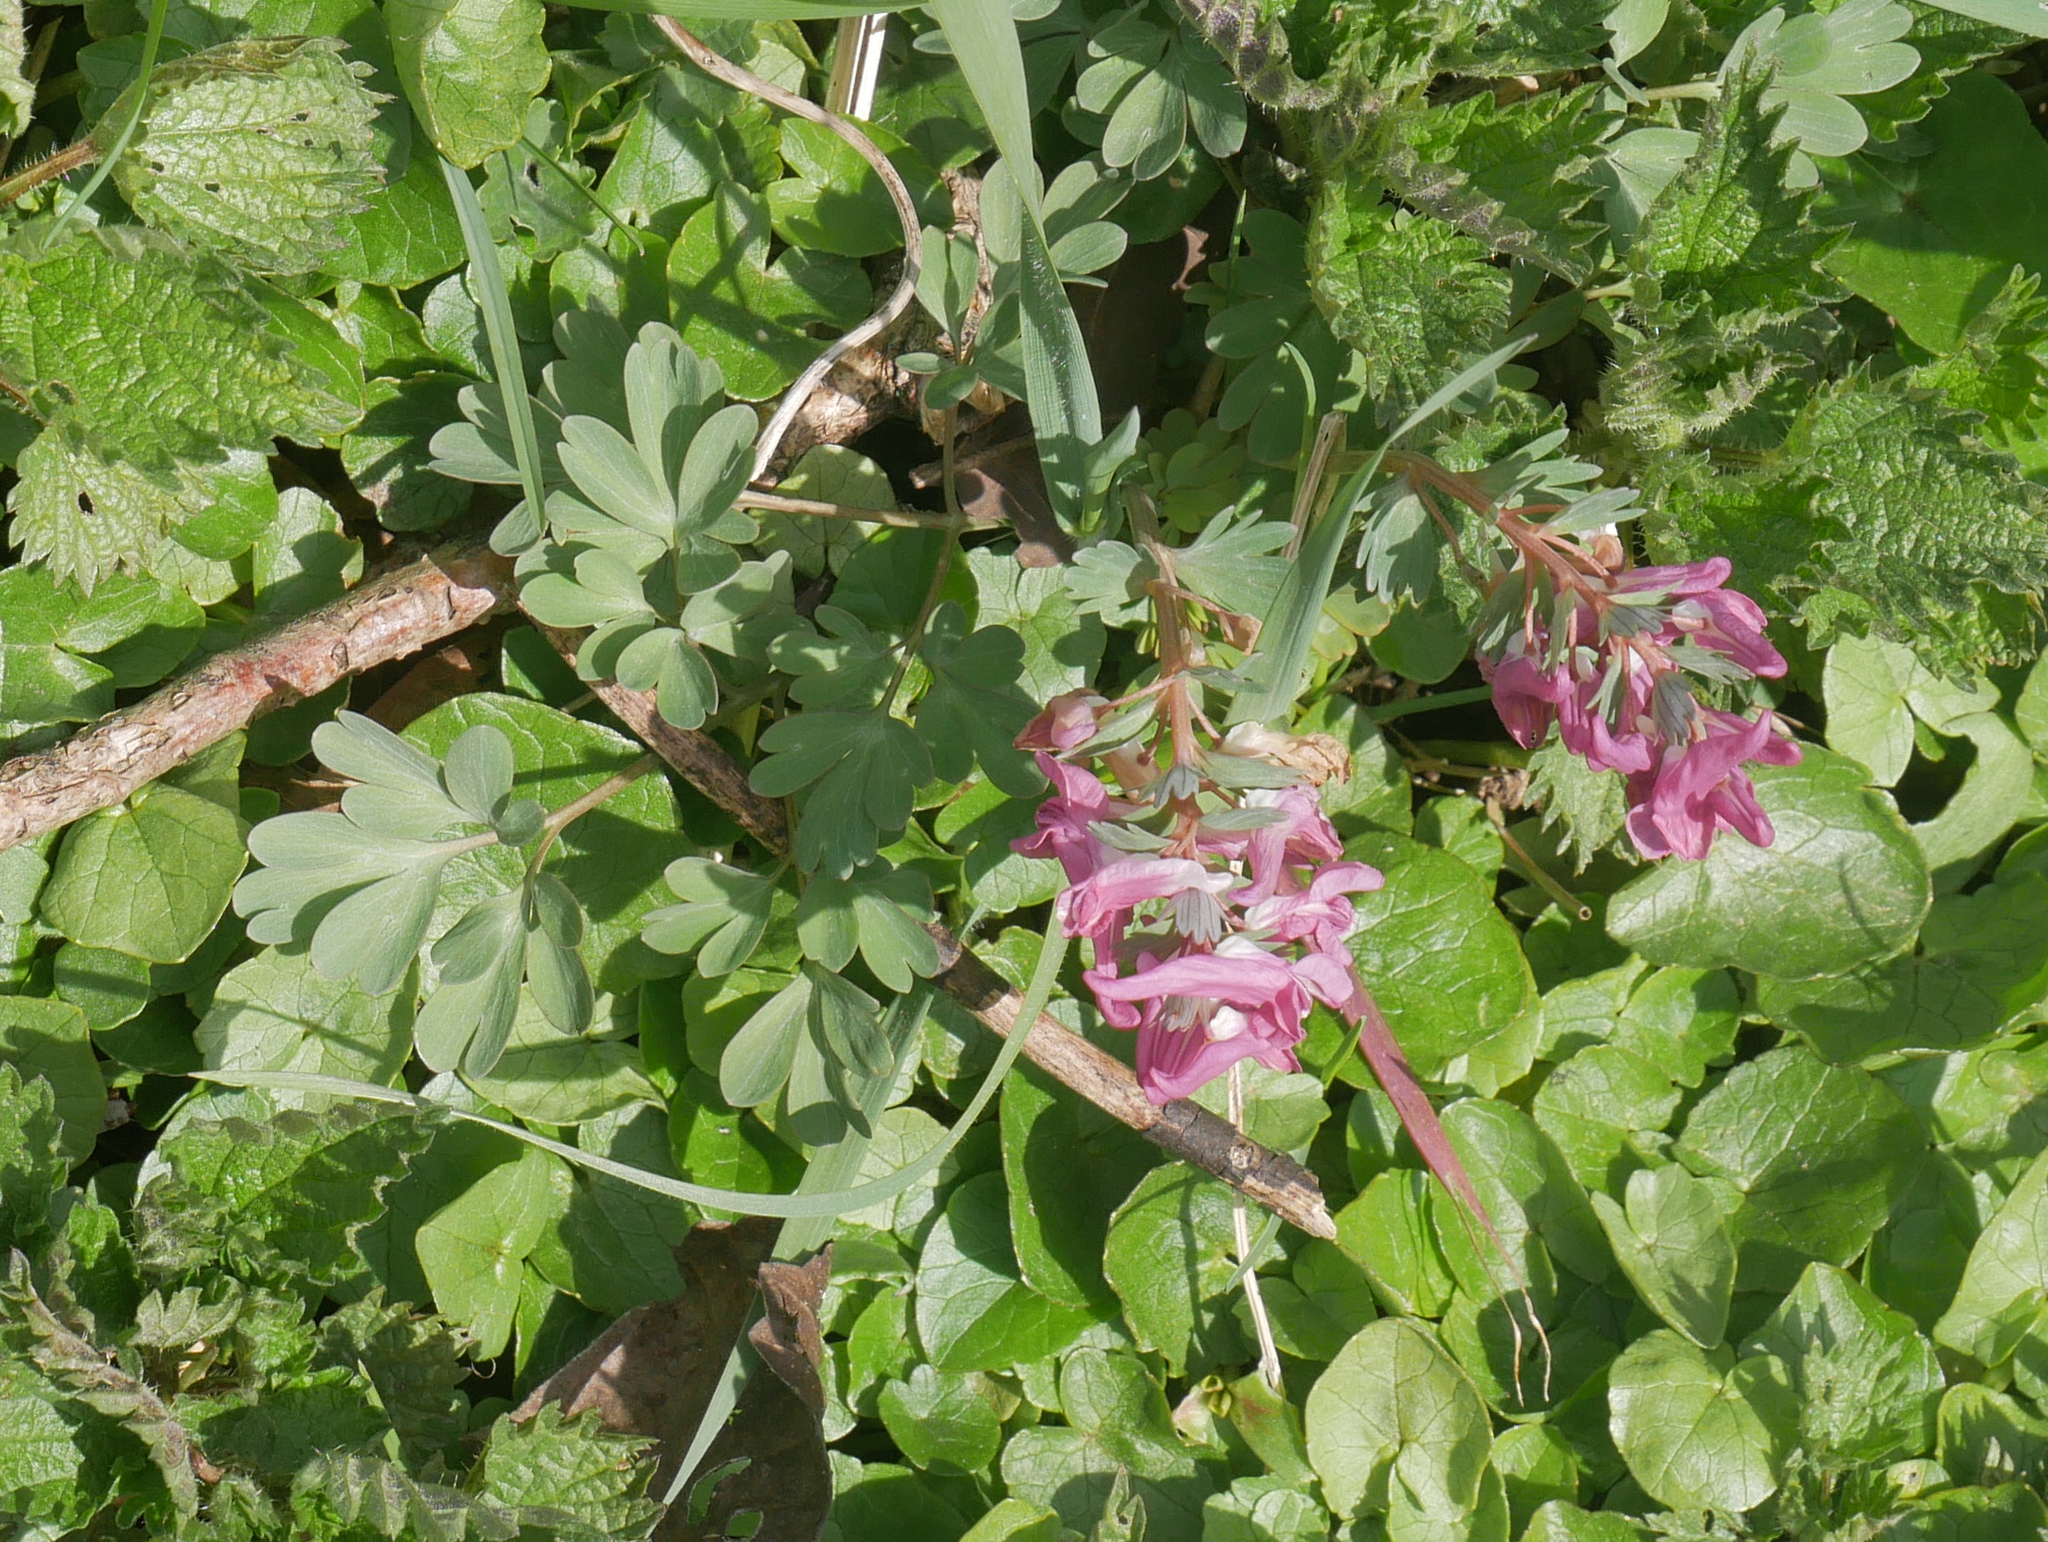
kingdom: Plantae
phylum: Tracheophyta
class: Magnoliopsida
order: Ranunculales
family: Papaveraceae
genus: Corydalis
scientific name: Corydalis solida
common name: Bird-in-a-bush
